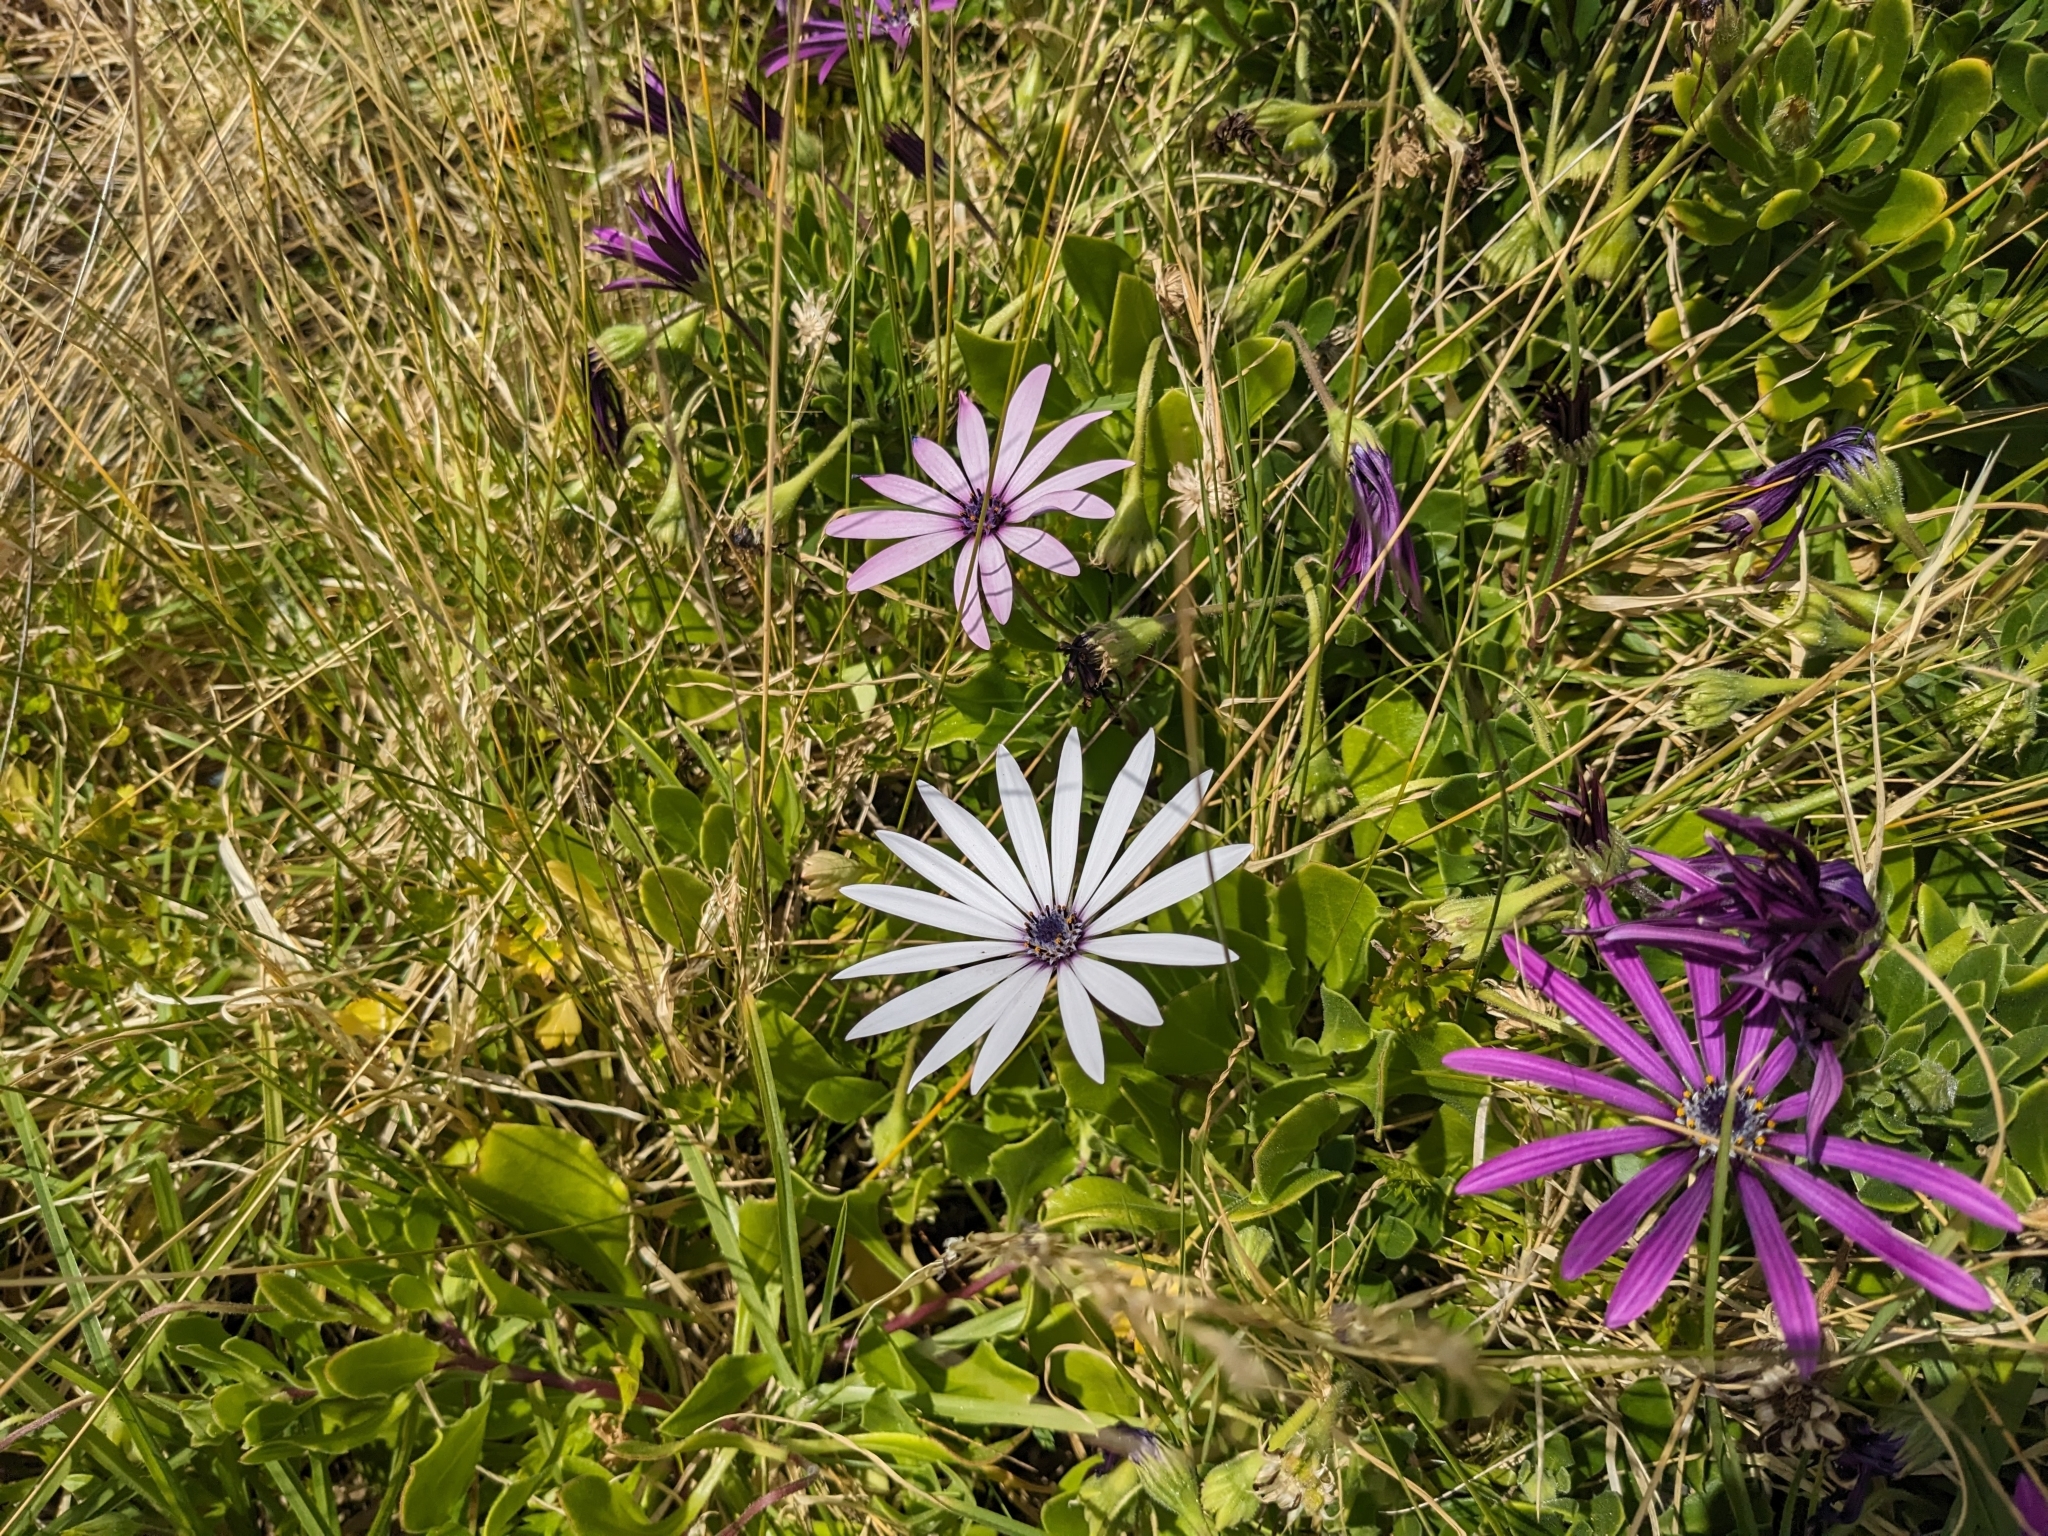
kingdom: Plantae
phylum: Tracheophyta
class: Magnoliopsida
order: Asterales
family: Asteraceae
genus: Dimorphotheca
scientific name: Dimorphotheca fruticosa
